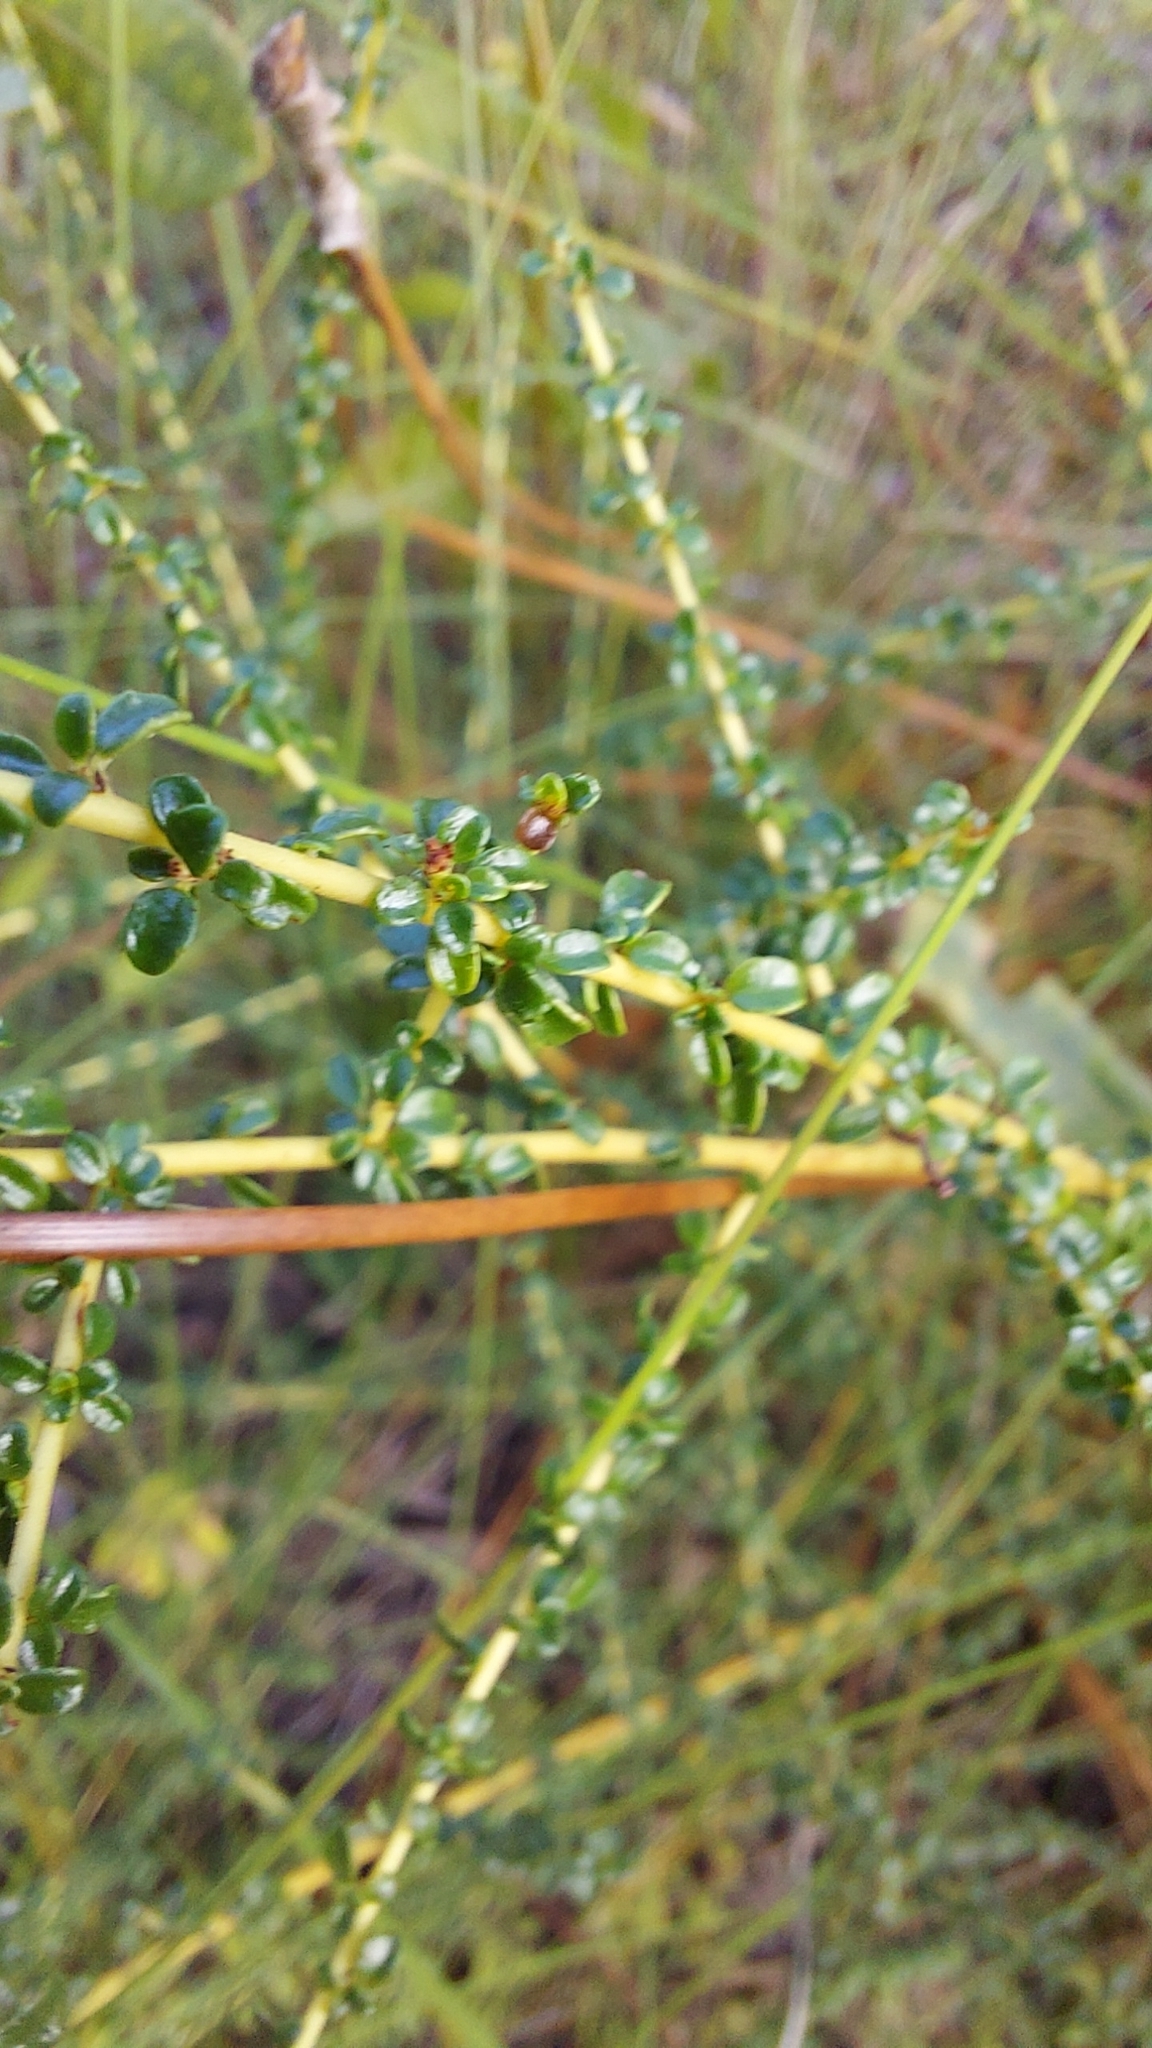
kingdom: Plantae
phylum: Tracheophyta
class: Magnoliopsida
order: Rosales
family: Rhamnaceae
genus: Ceanothus
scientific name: Ceanothus microphyllus
